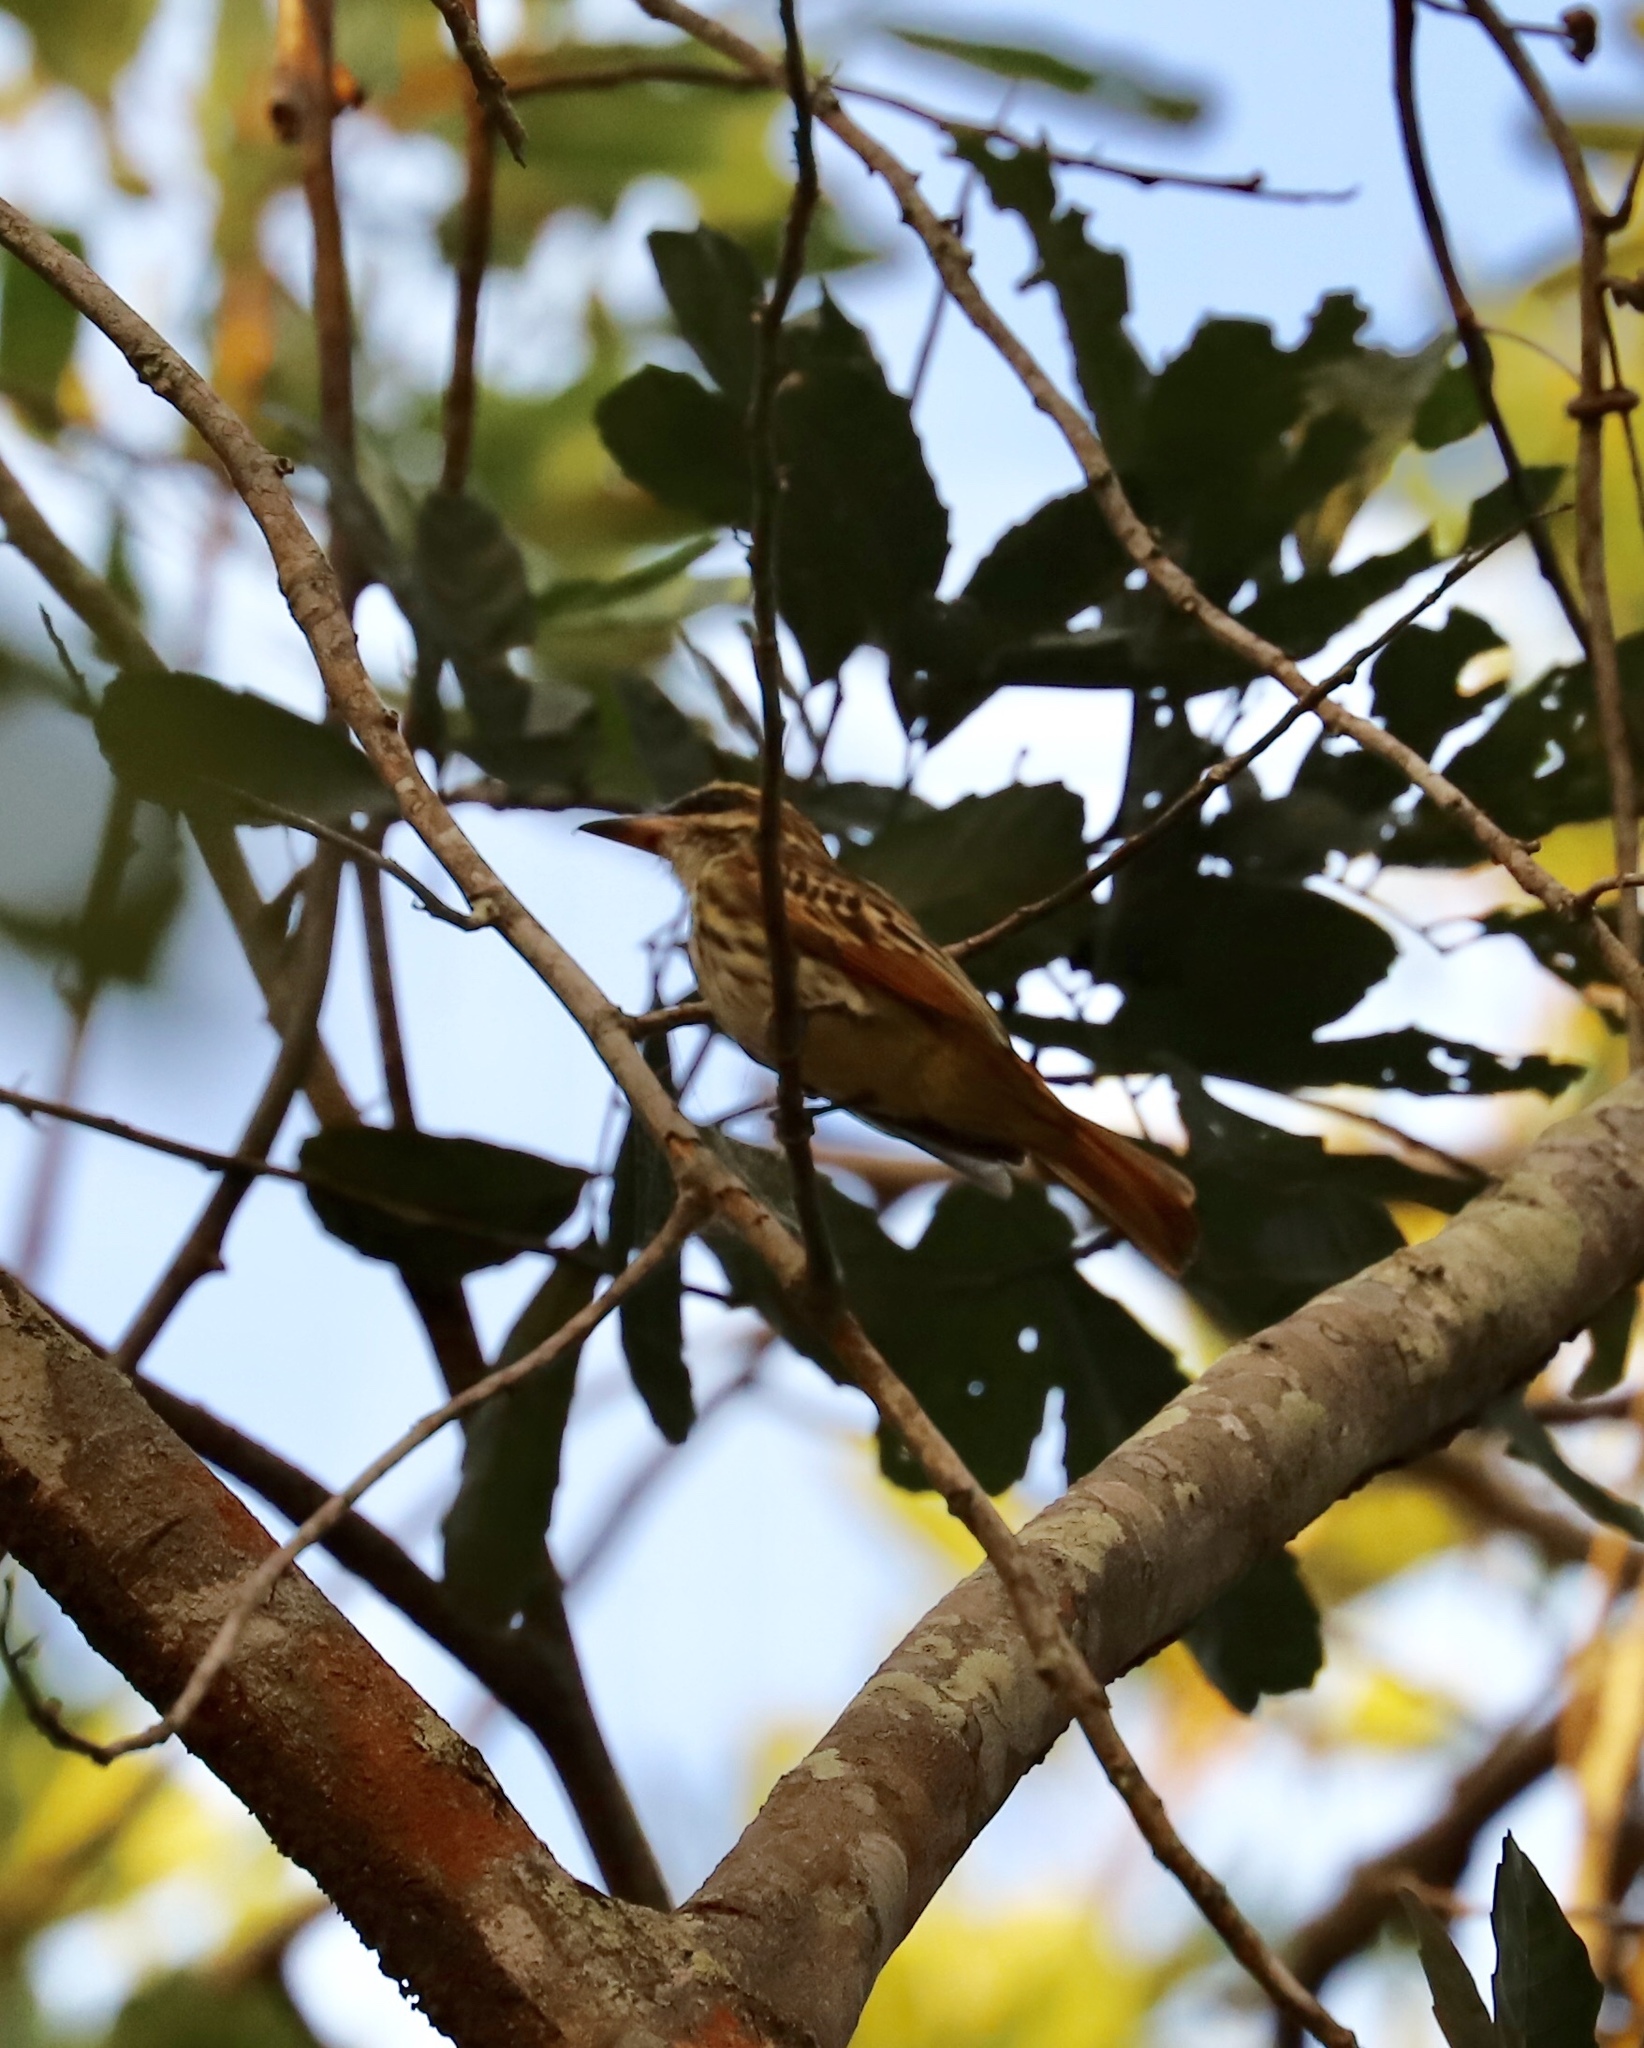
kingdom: Animalia
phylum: Chordata
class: Aves
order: Passeriformes
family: Tyrannidae
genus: Myiodynastes
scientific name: Myiodynastes maculatus
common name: Streaked flycatcher
